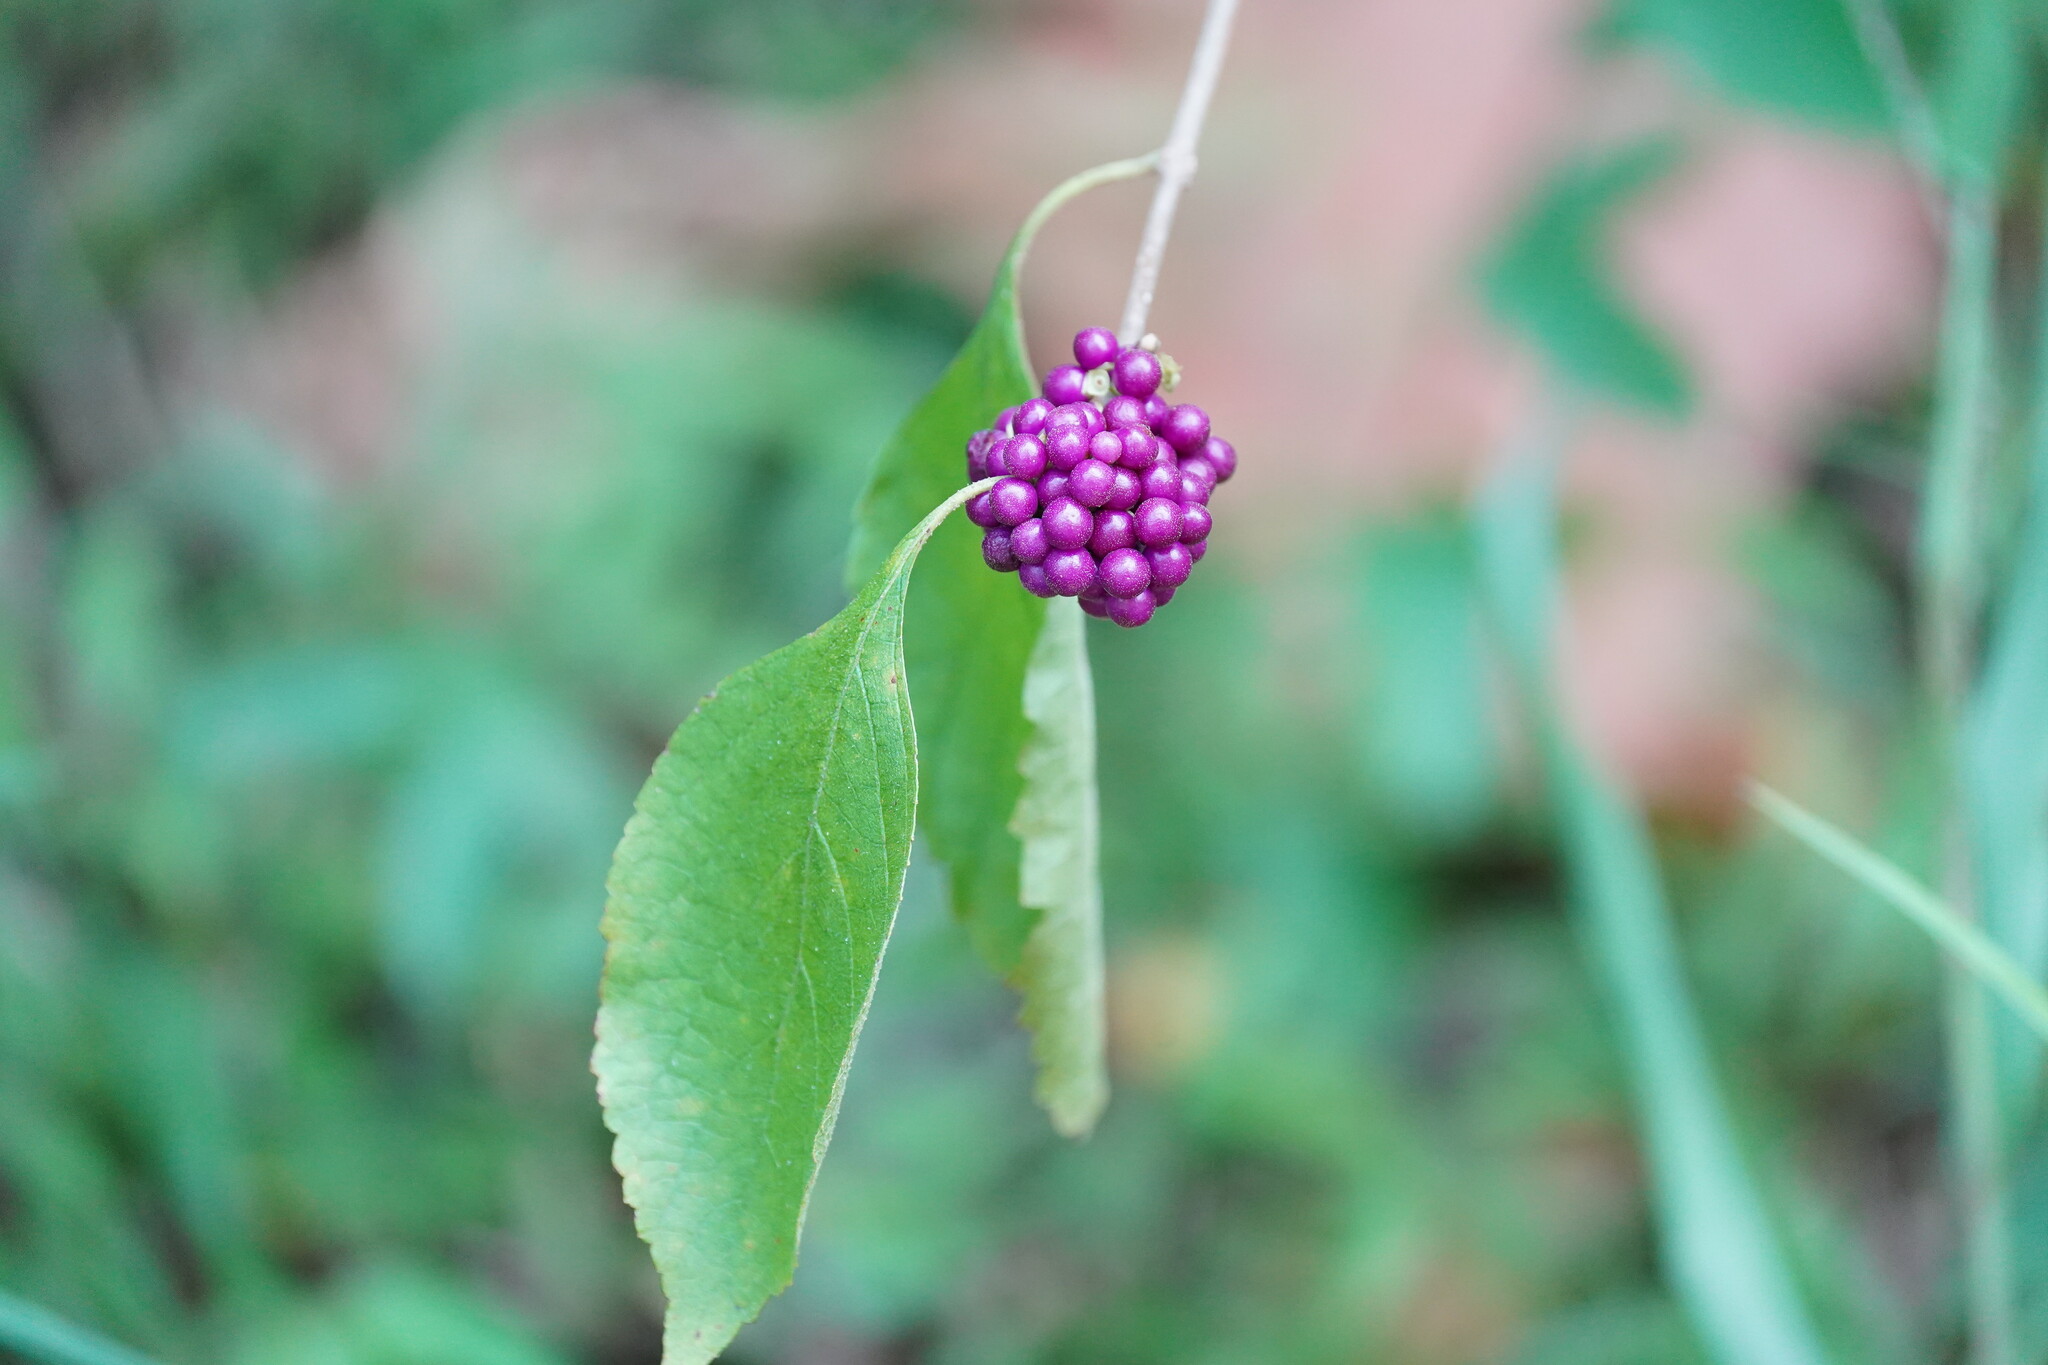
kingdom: Plantae
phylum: Tracheophyta
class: Magnoliopsida
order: Lamiales
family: Lamiaceae
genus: Callicarpa
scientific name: Callicarpa americana
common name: American beautyberry
